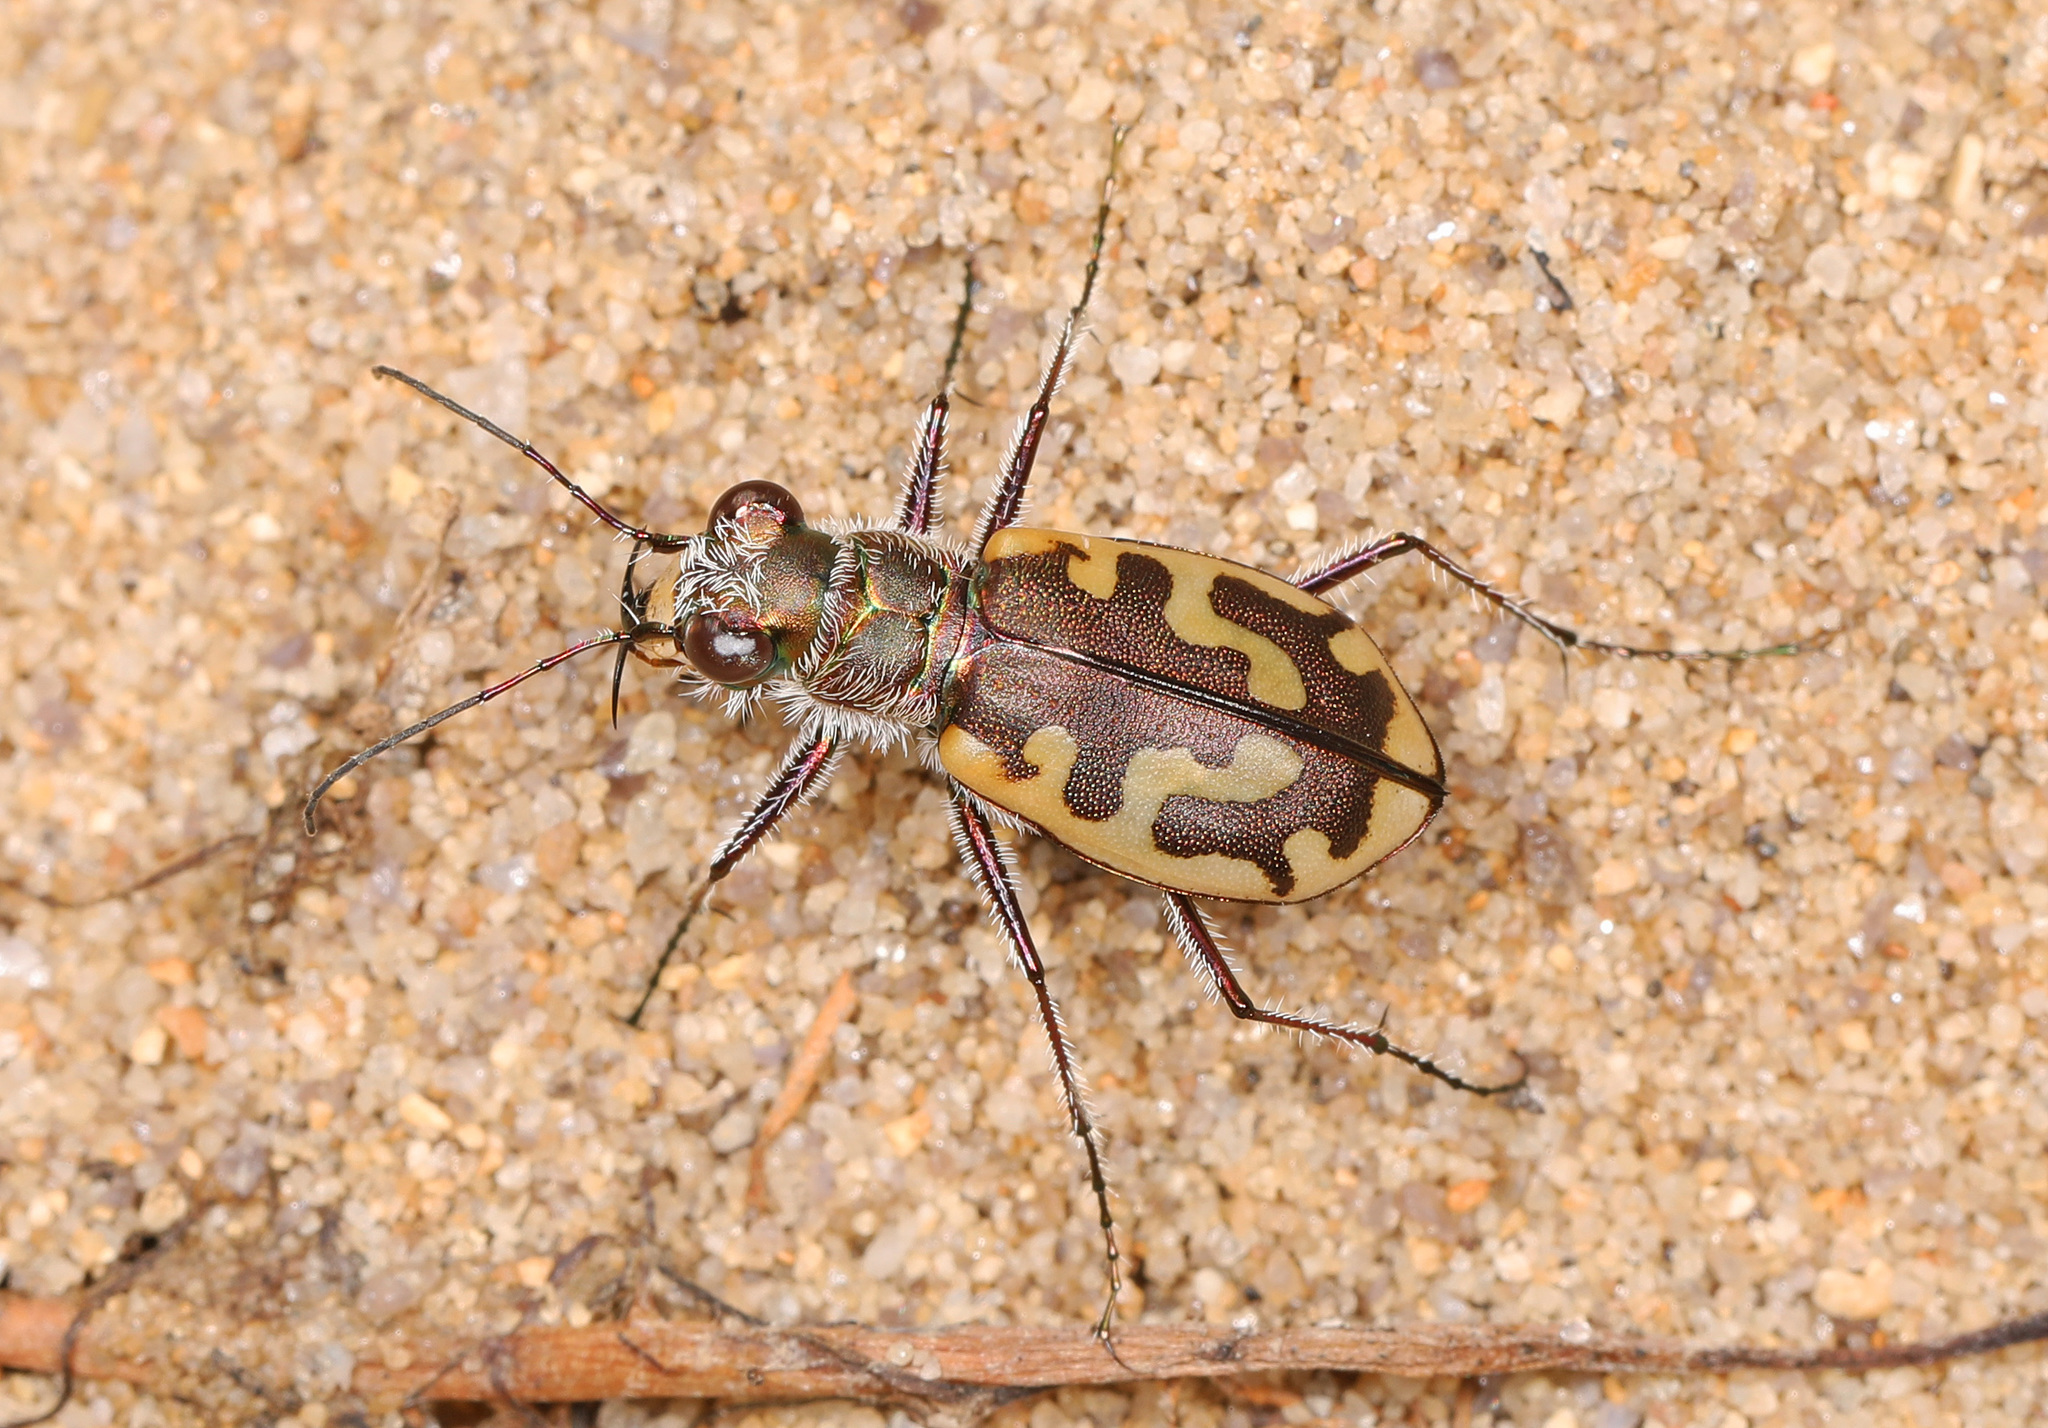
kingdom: Animalia
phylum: Arthropoda
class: Insecta
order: Coleoptera
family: Carabidae
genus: Cicindela
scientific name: Cicindela hirticollis
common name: Hairy-necked tiger beetle
